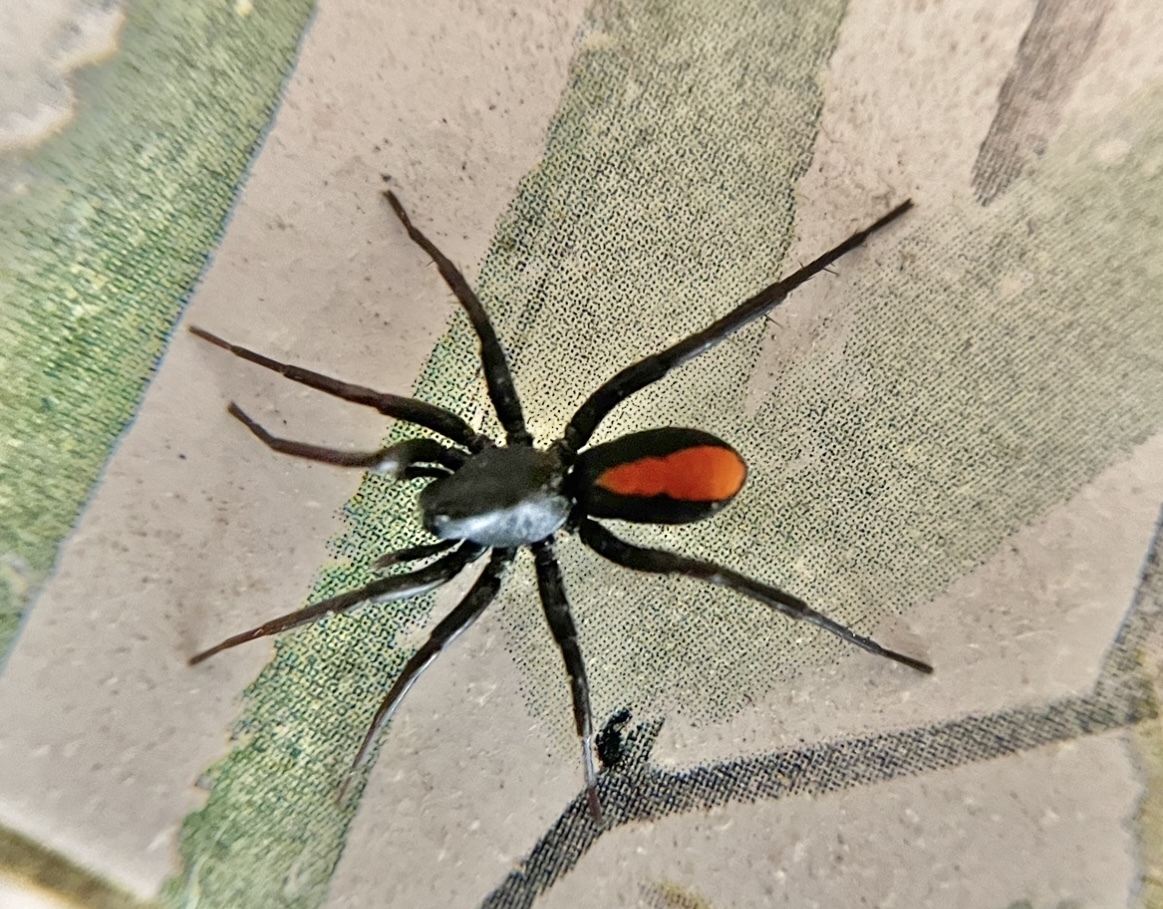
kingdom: Animalia
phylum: Arthropoda
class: Arachnida
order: Araneae
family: Corinnidae
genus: Castianeira
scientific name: Castianeira descripta
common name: Red-spotted ant-mimic sac spider
